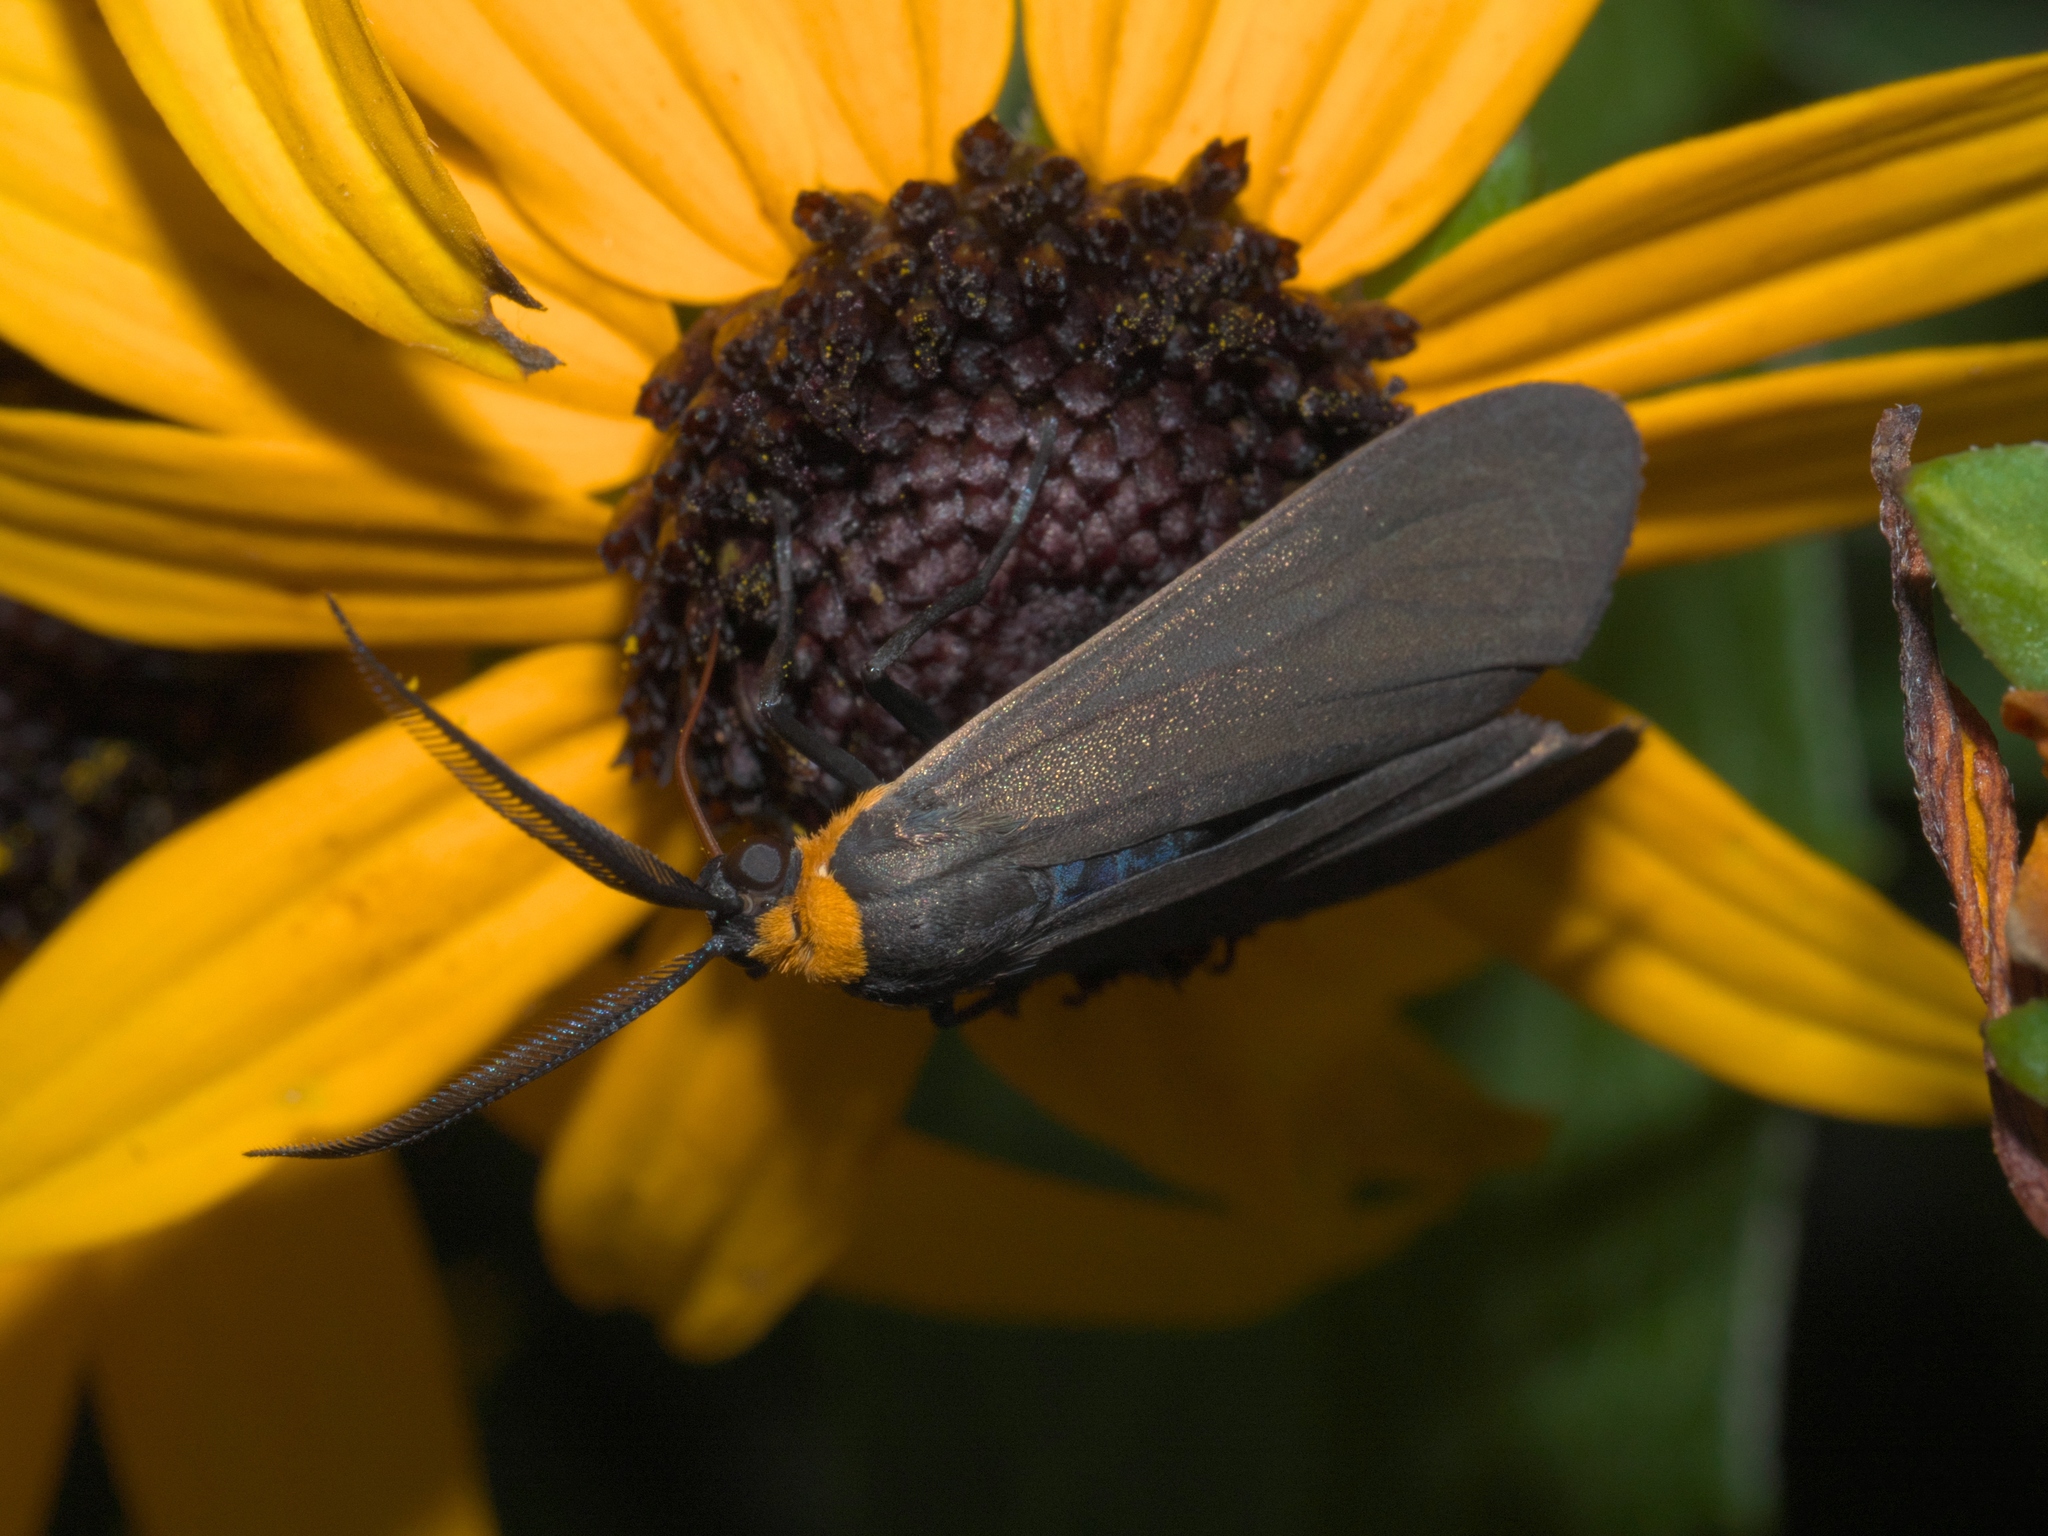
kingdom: Animalia
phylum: Arthropoda
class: Insecta
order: Lepidoptera
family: Erebidae
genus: Cisseps
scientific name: Cisseps fulvicollis
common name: Yellow-collared scape moth
